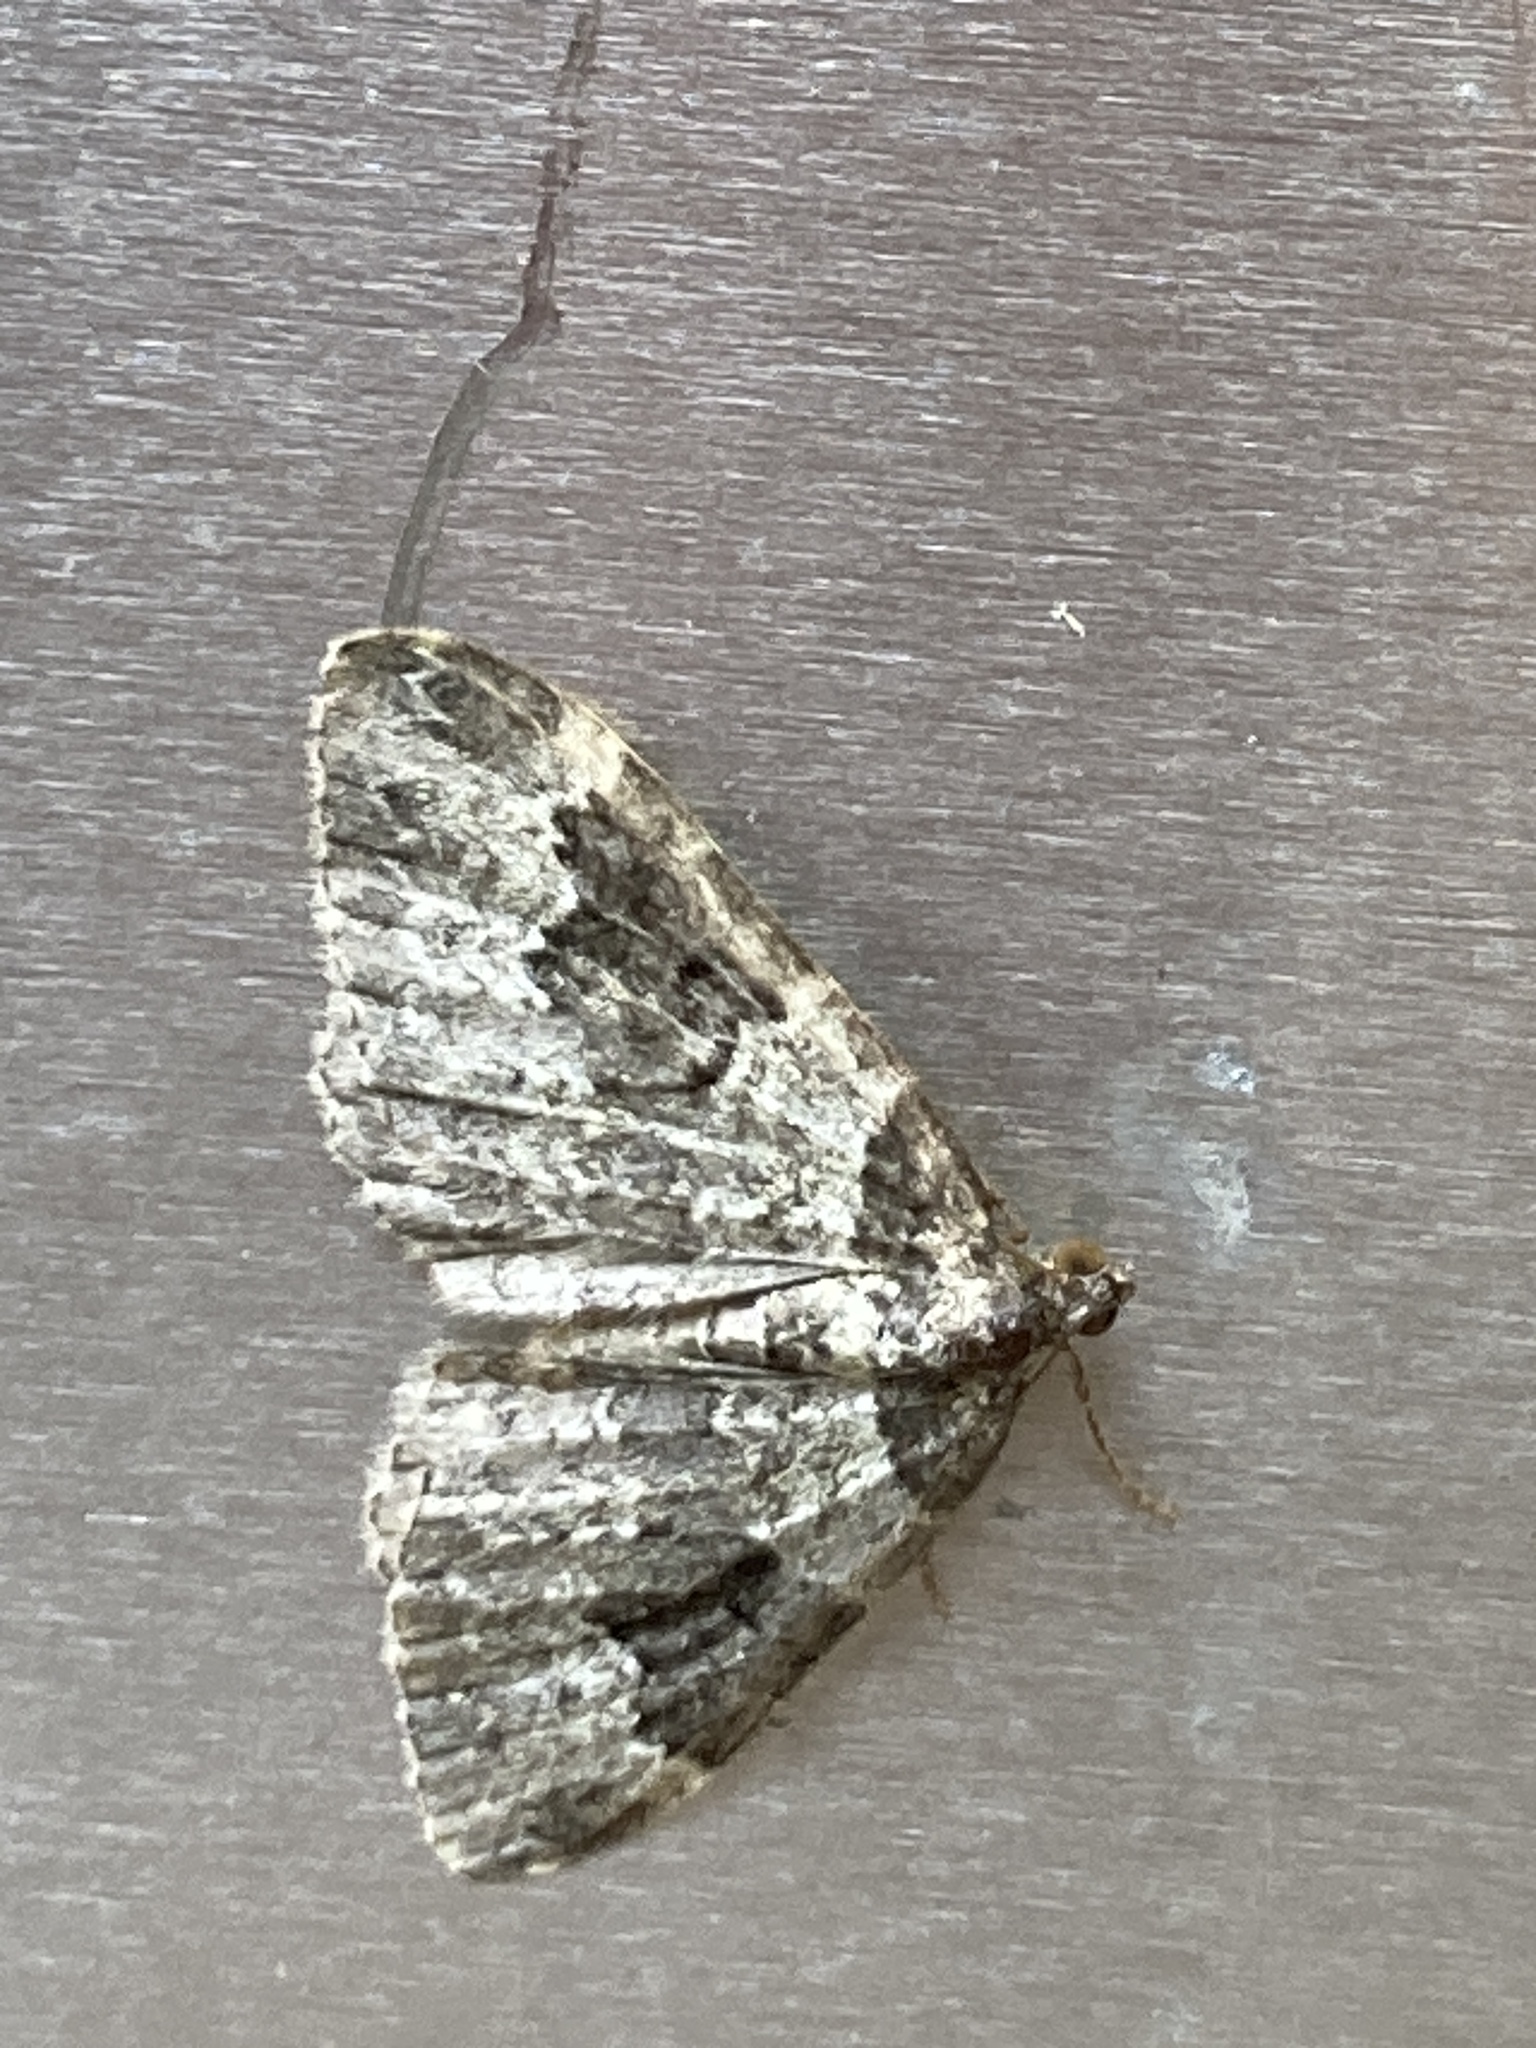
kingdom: Animalia
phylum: Arthropoda
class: Insecta
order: Lepidoptera
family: Geometridae
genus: Xanthorhoe
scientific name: Xanthorhoe fluctuata
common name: Garden carpet
